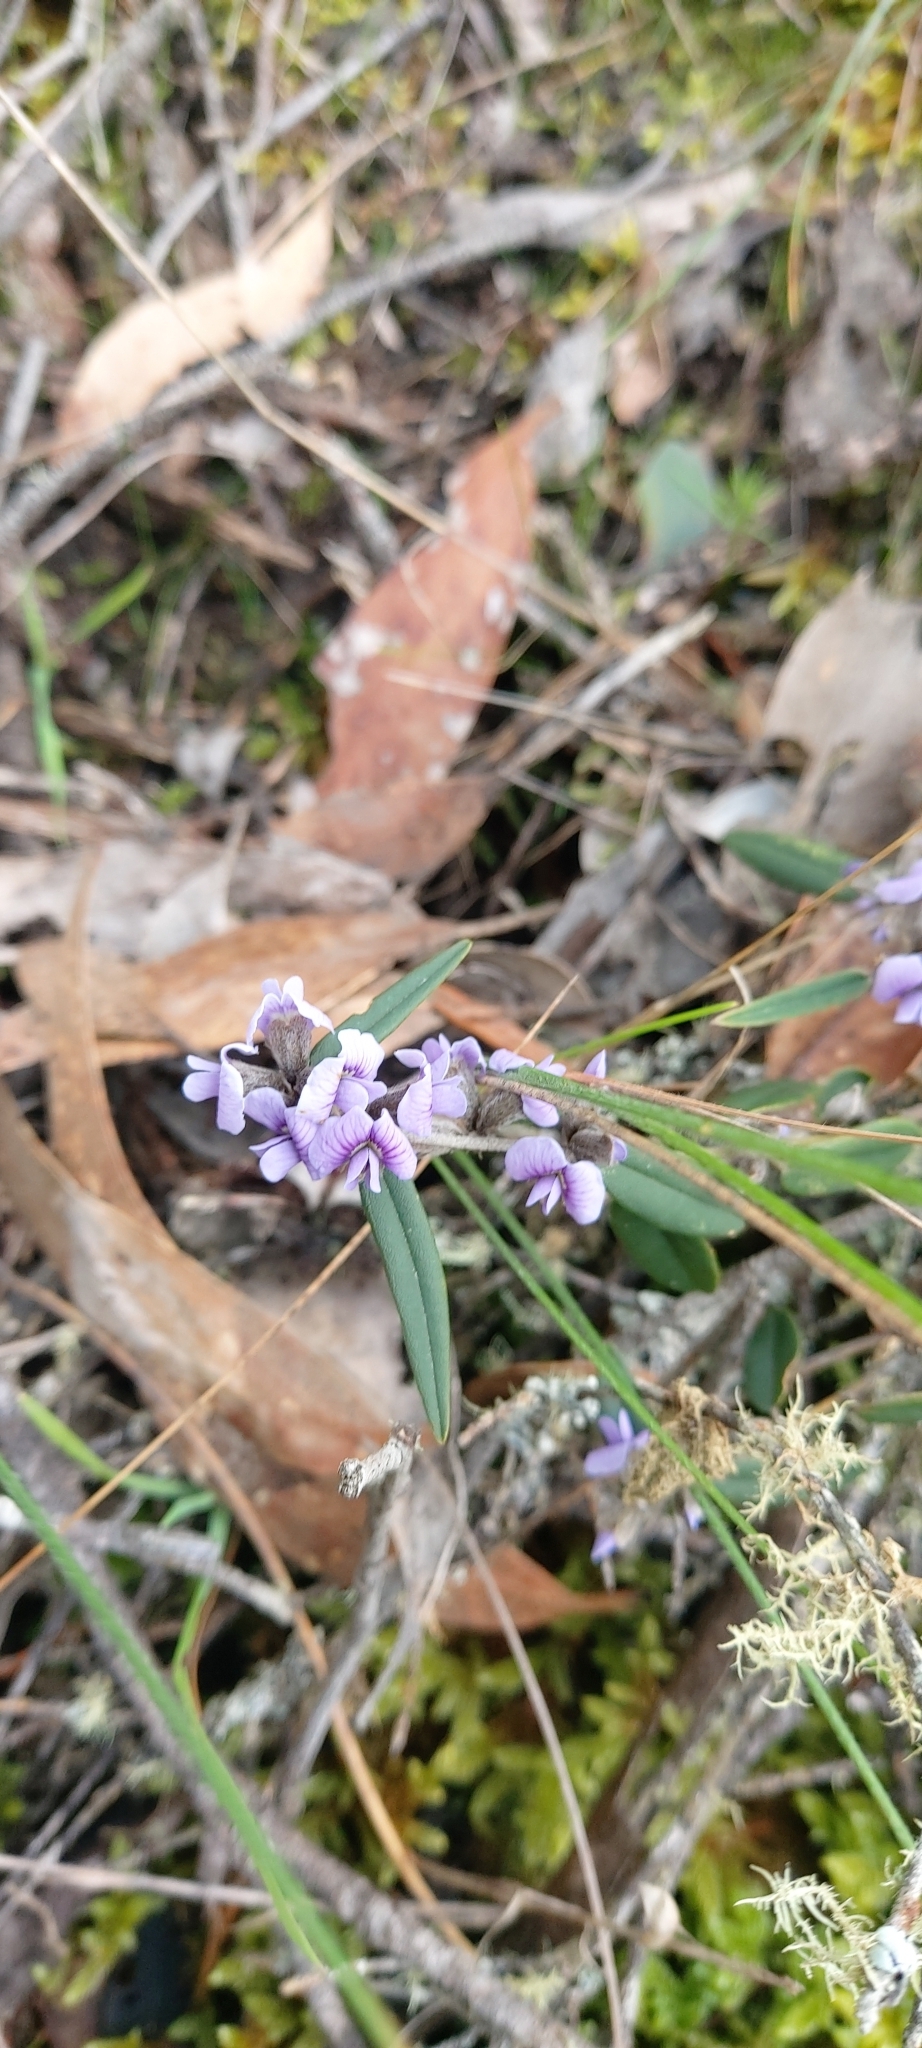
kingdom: Plantae
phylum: Tracheophyta
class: Magnoliopsida
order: Fabales
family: Fabaceae
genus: Hovea
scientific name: Hovea heterophylla
